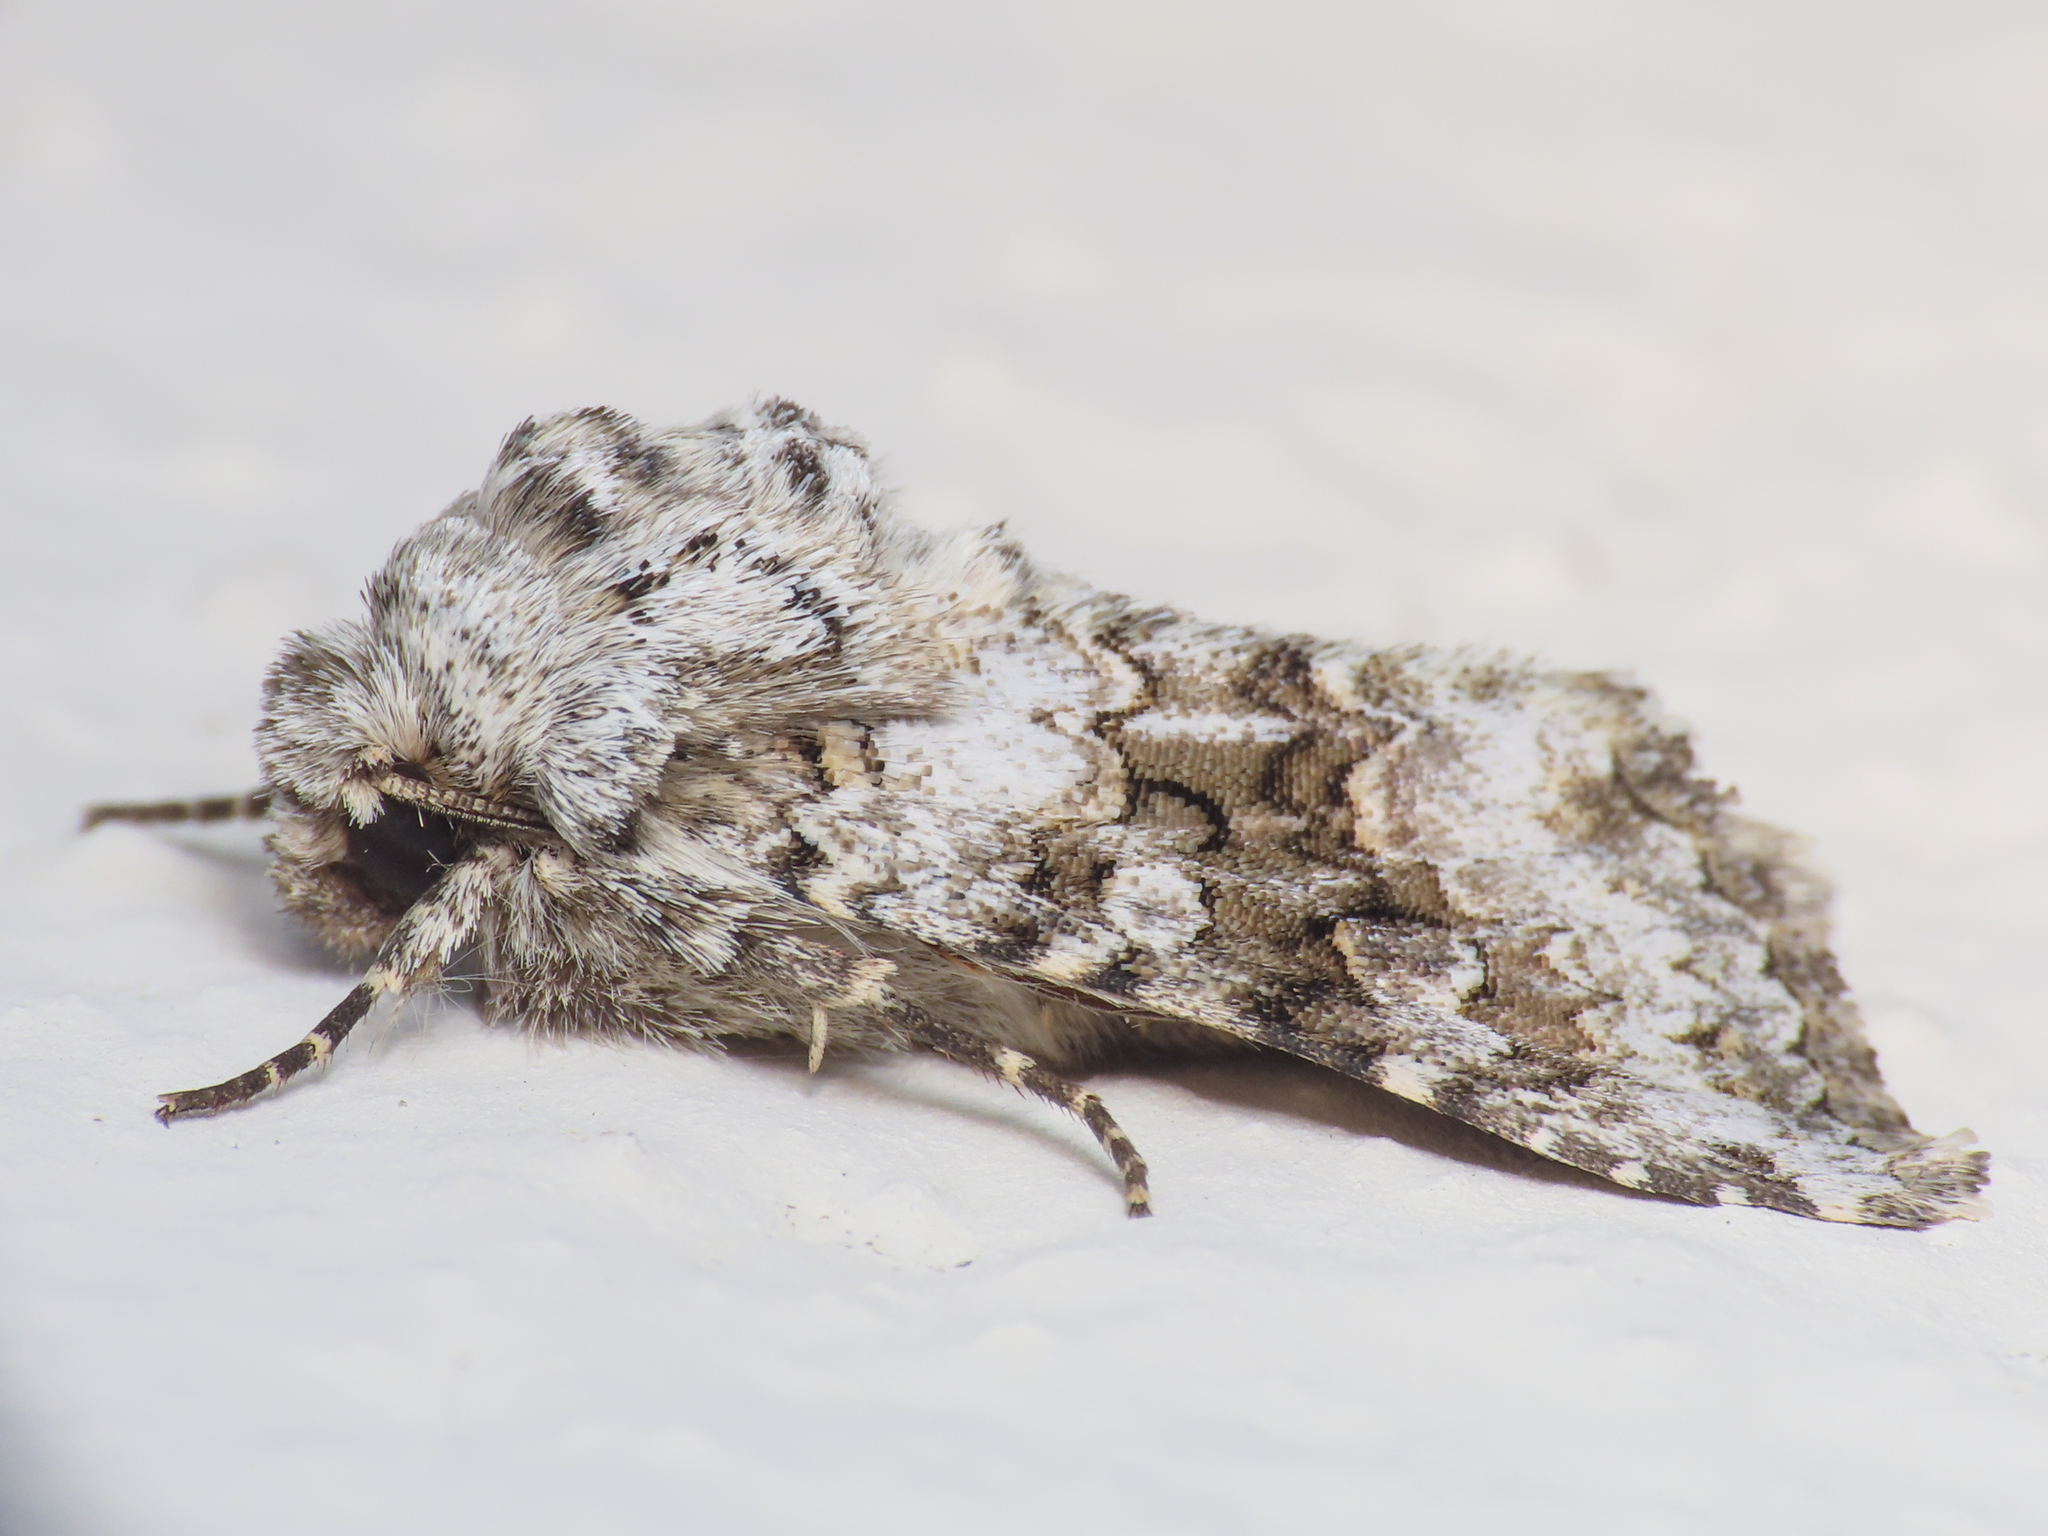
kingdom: Animalia
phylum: Arthropoda
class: Insecta
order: Lepidoptera
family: Noctuidae
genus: Hecatera
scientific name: Hecatera bicolorata
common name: Broad-barred white
